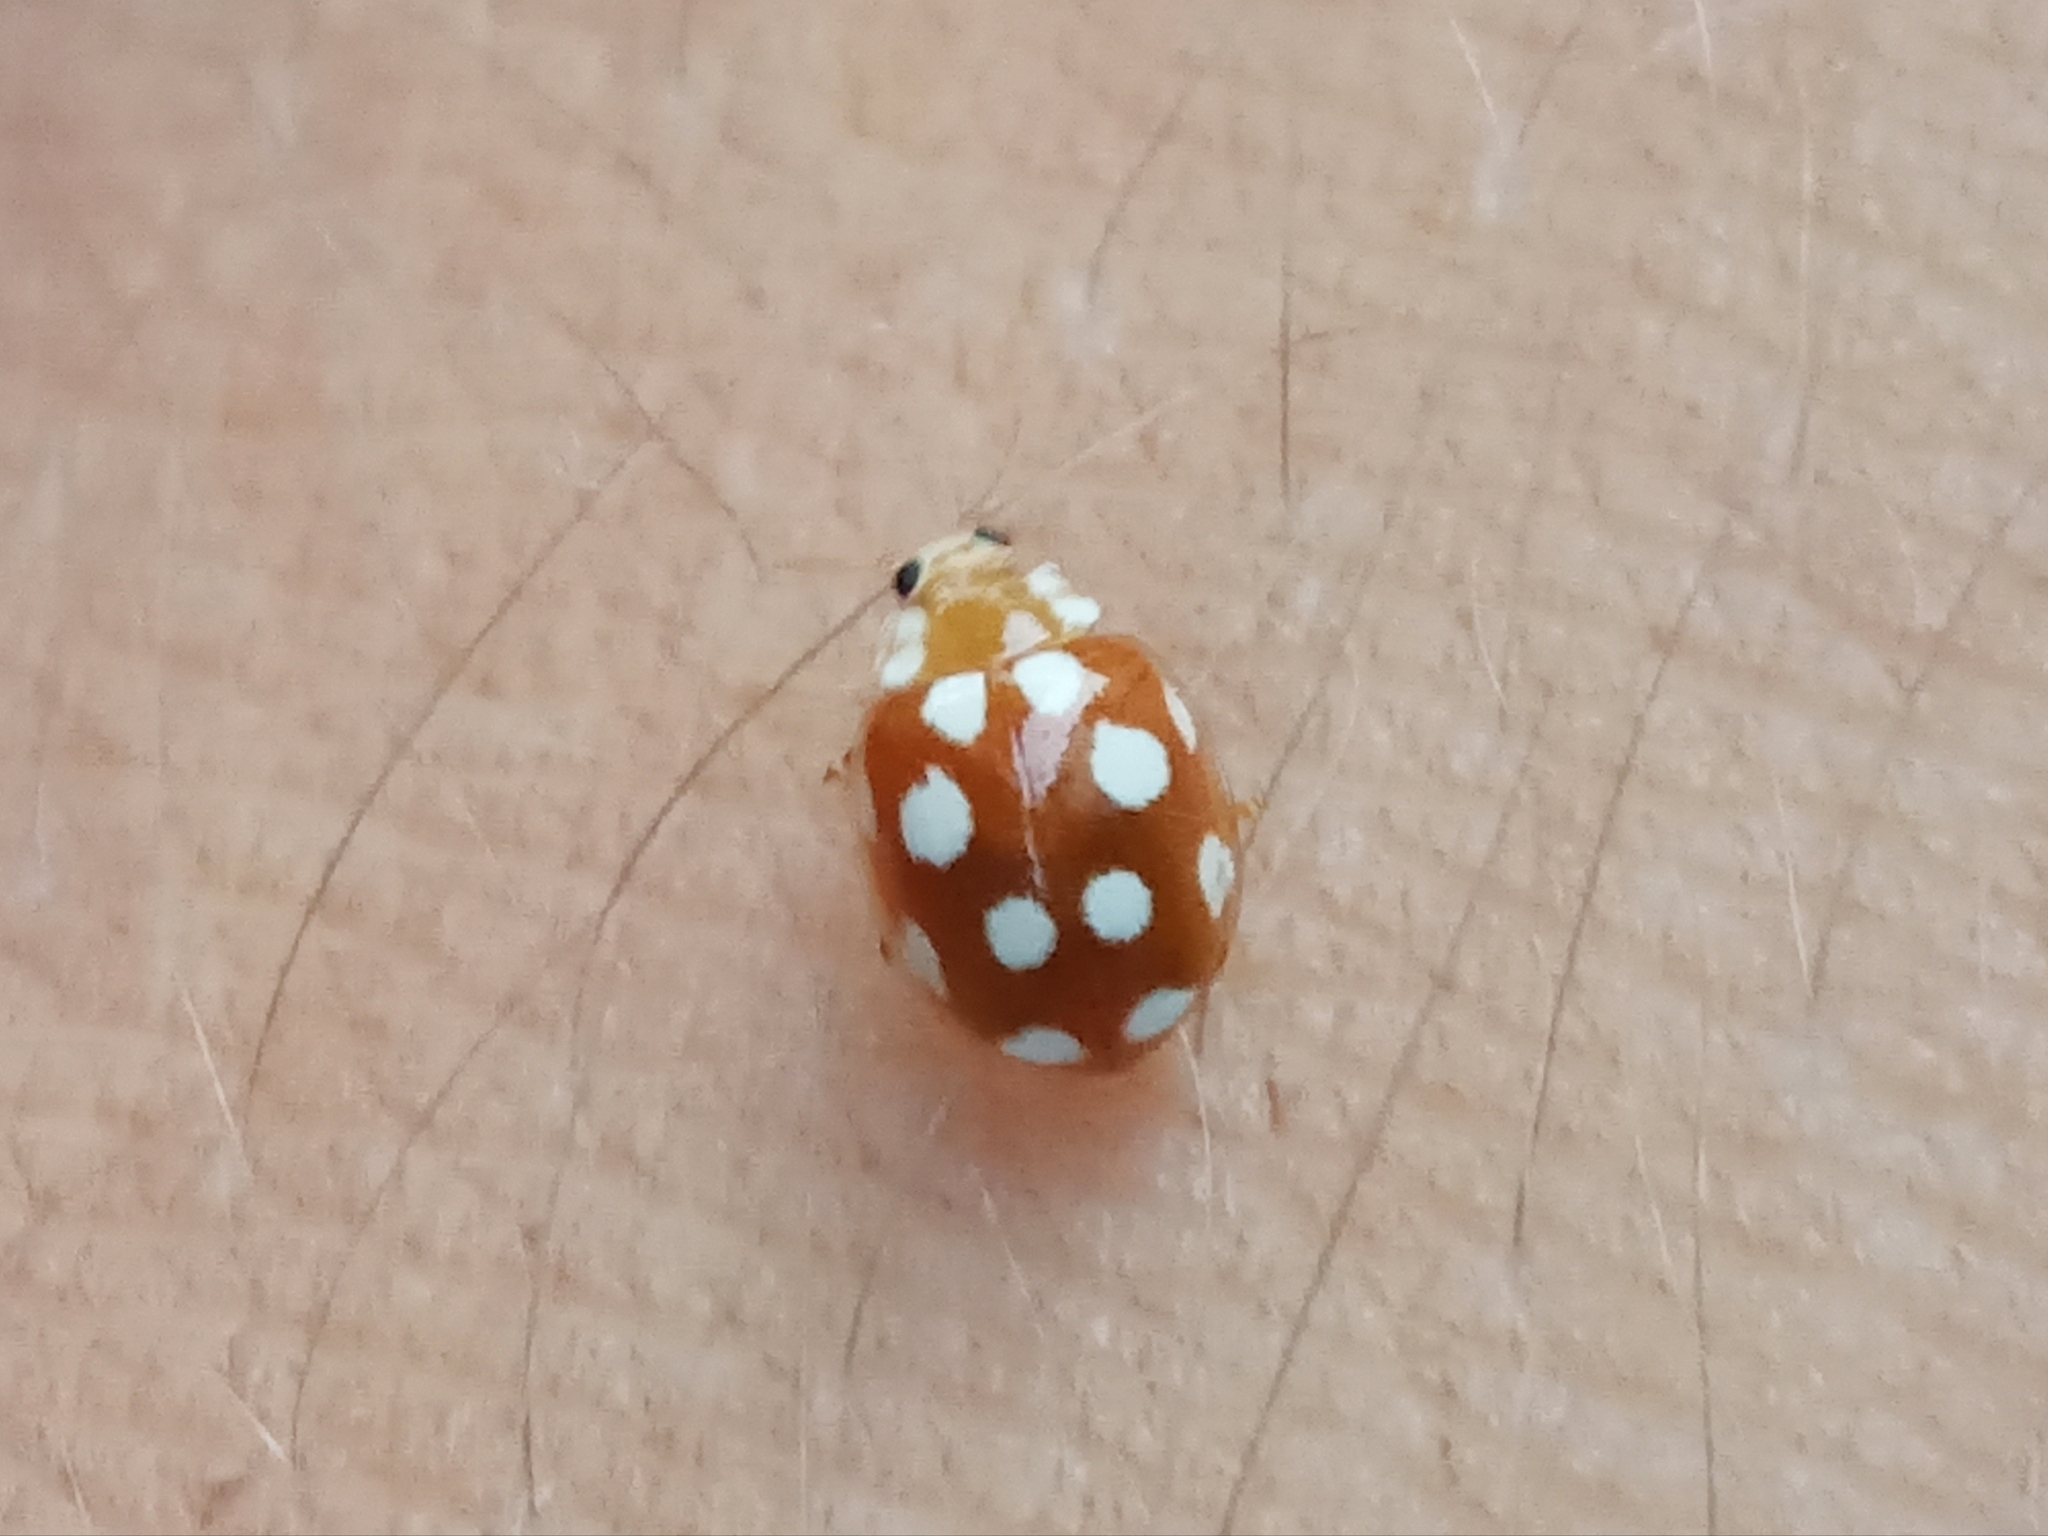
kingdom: Animalia
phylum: Arthropoda
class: Insecta
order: Coleoptera
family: Coccinellidae
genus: Vibidia
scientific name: Vibidia duodecimguttata
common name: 12-spot ladybird
